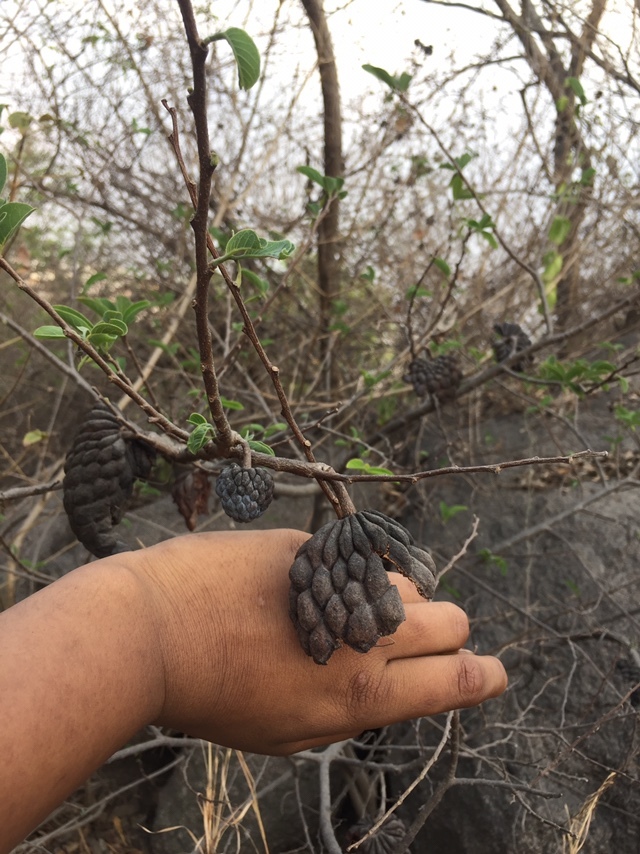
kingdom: Plantae
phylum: Tracheophyta
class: Magnoliopsida
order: Magnoliales
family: Annonaceae
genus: Annona
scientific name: Annona squamosa
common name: Custard-apple
